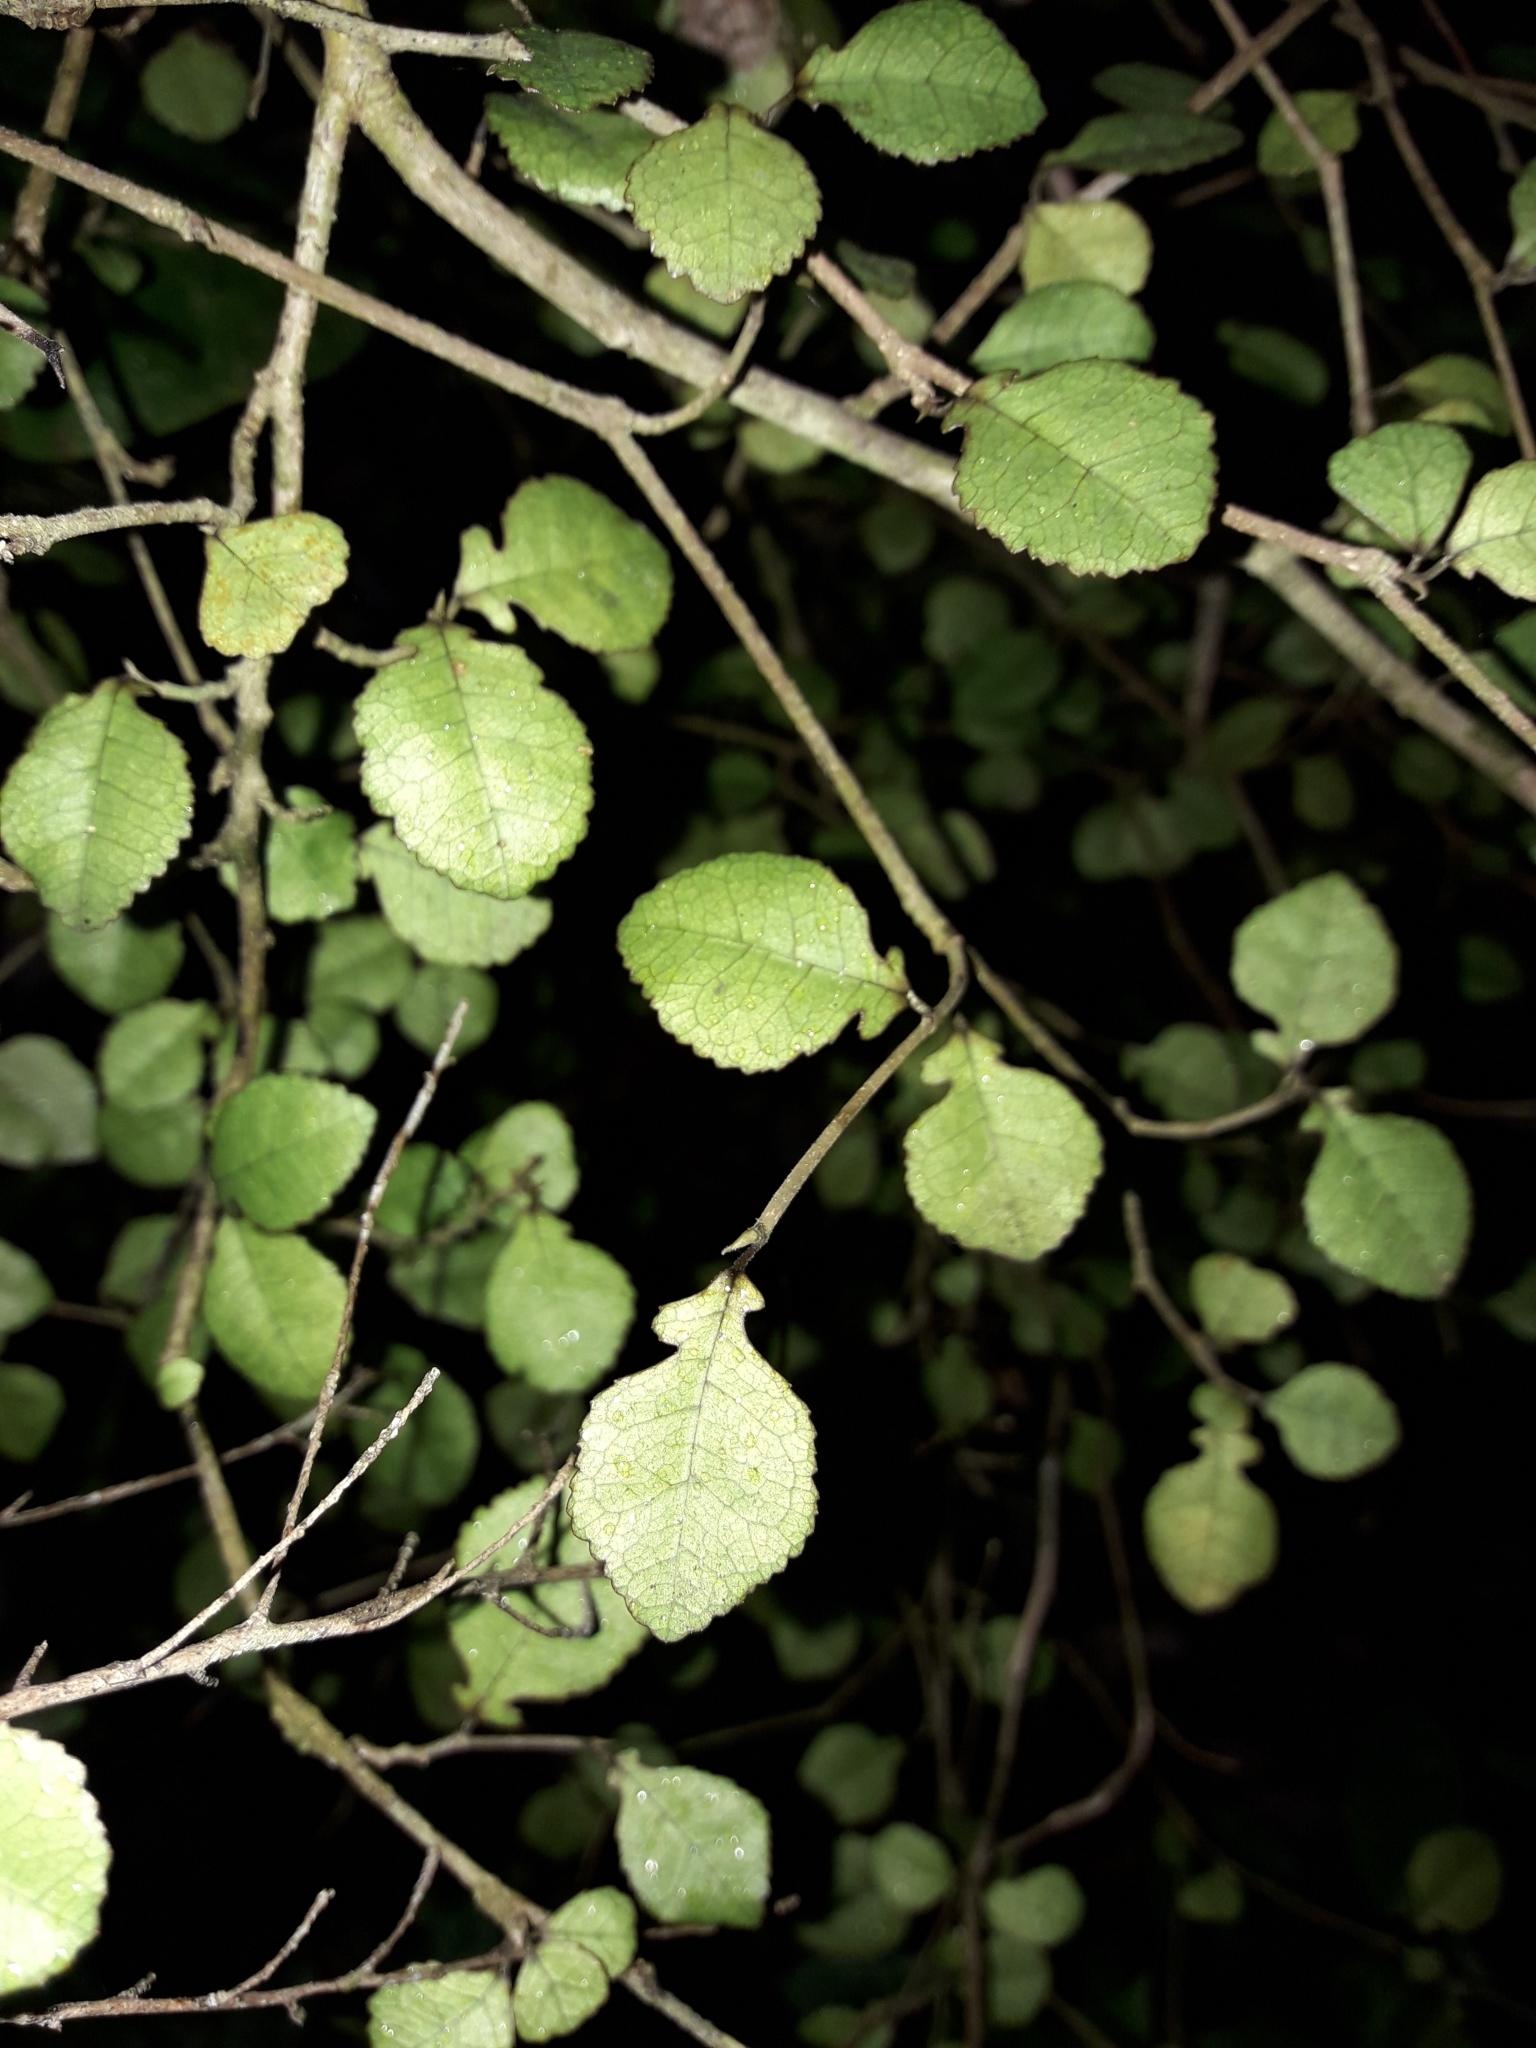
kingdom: Plantae
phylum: Tracheophyta
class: Magnoliopsida
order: Rosales
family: Moraceae
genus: Paratrophis
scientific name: Paratrophis microphylla
